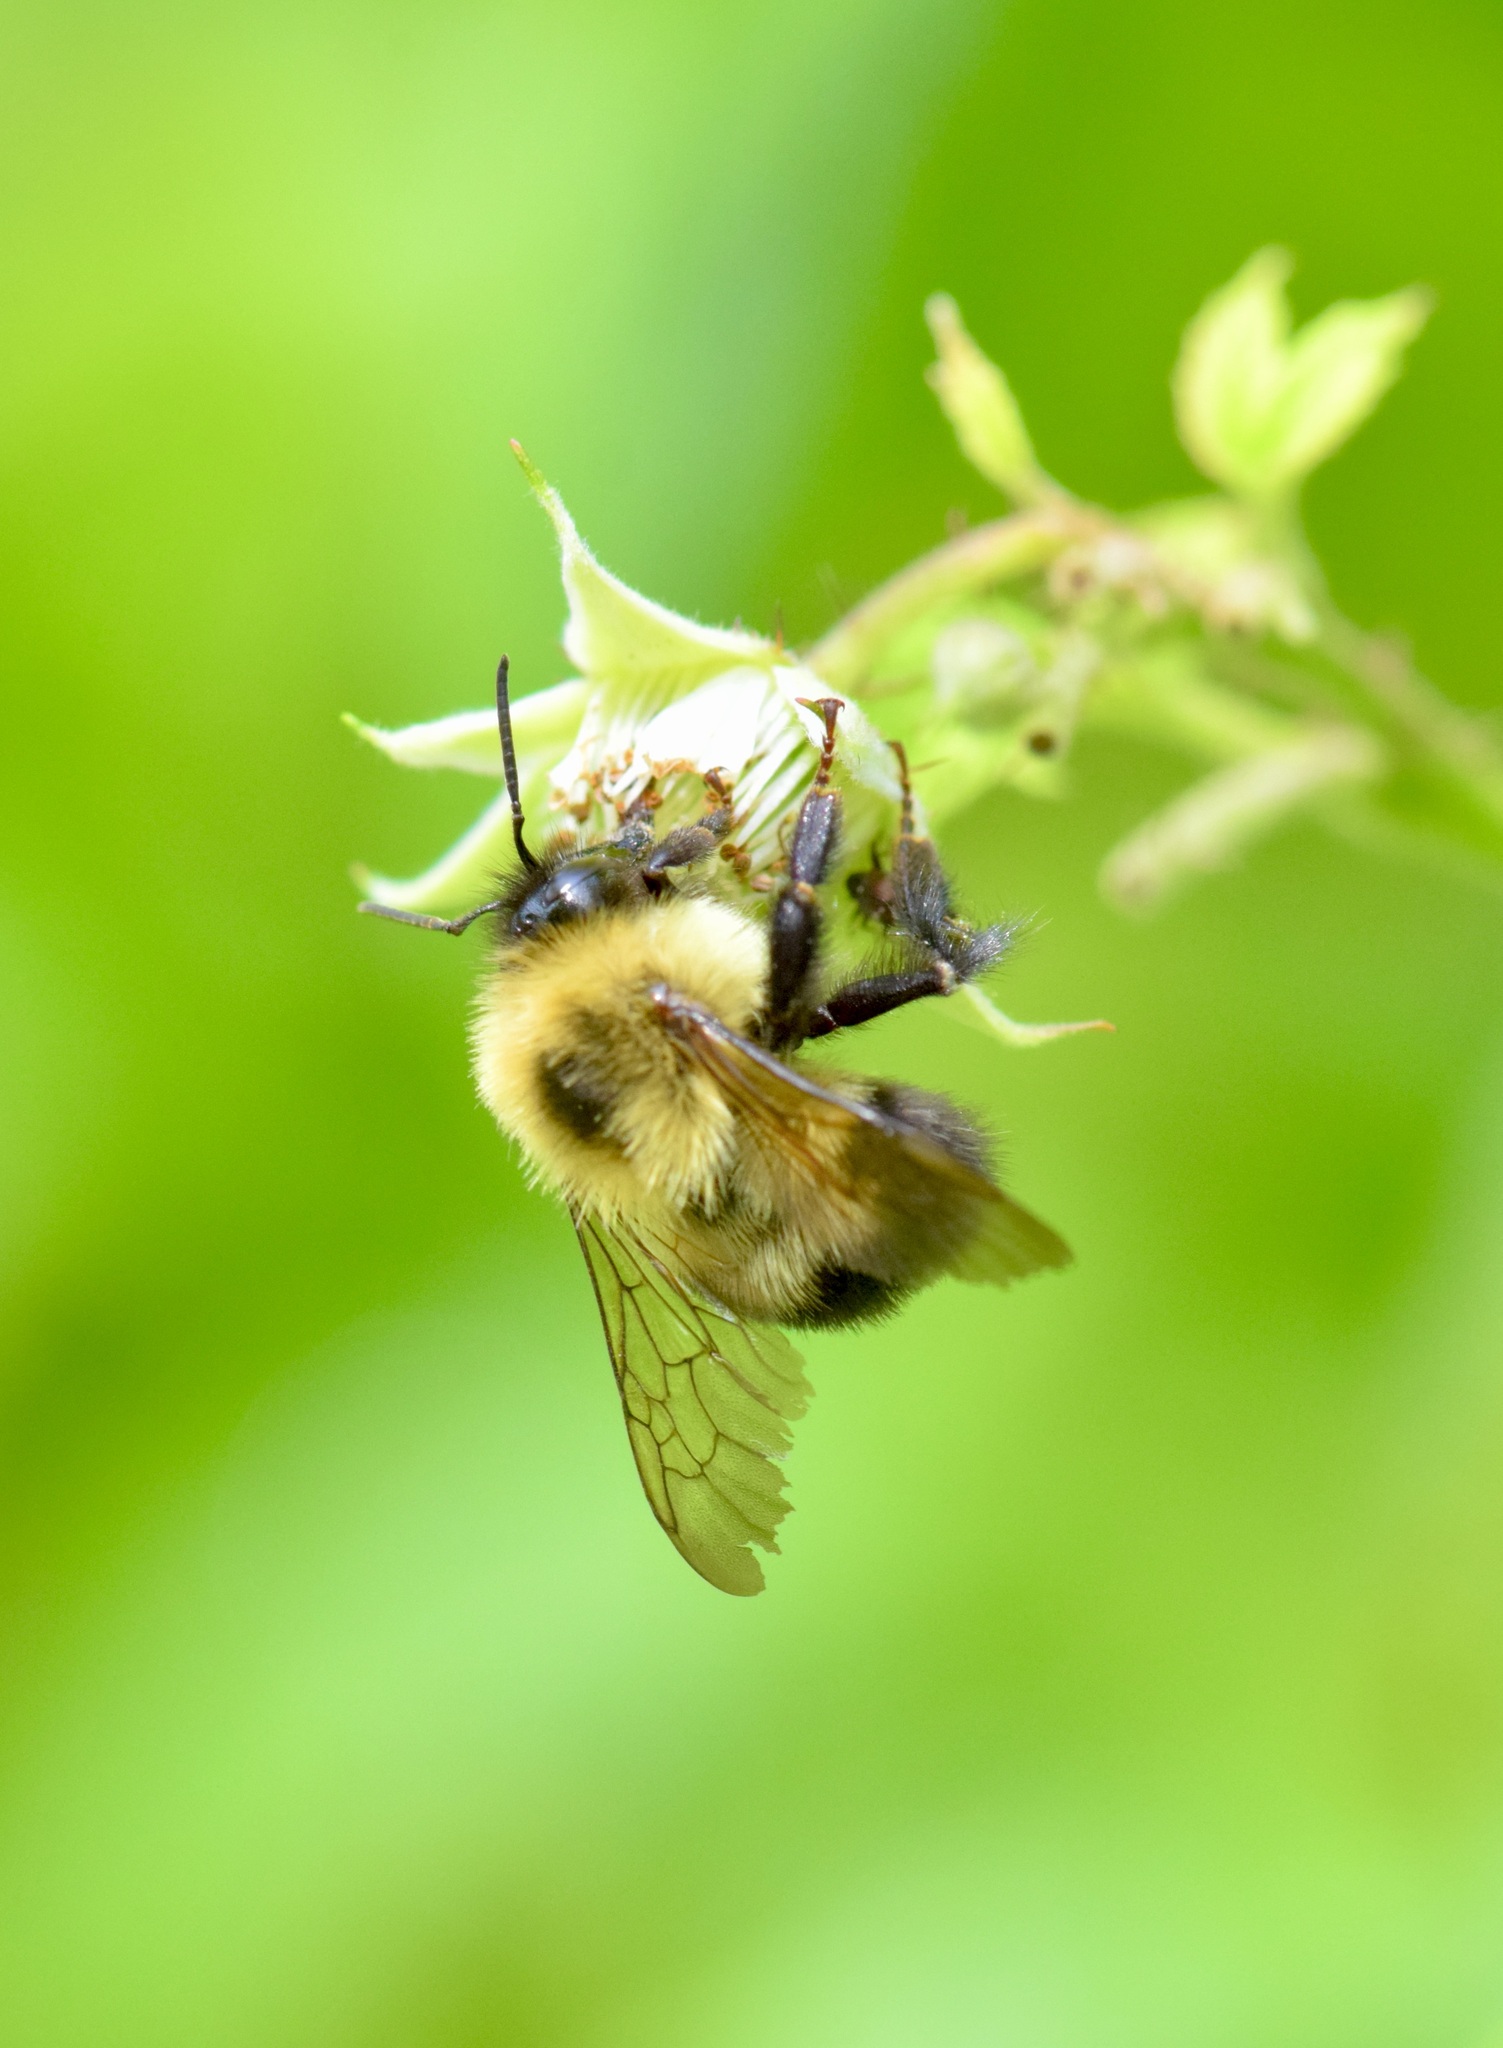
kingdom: Animalia
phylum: Arthropoda
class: Insecta
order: Hymenoptera
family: Apidae
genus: Bombus
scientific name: Bombus bimaculatus
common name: Two-spotted bumble bee
